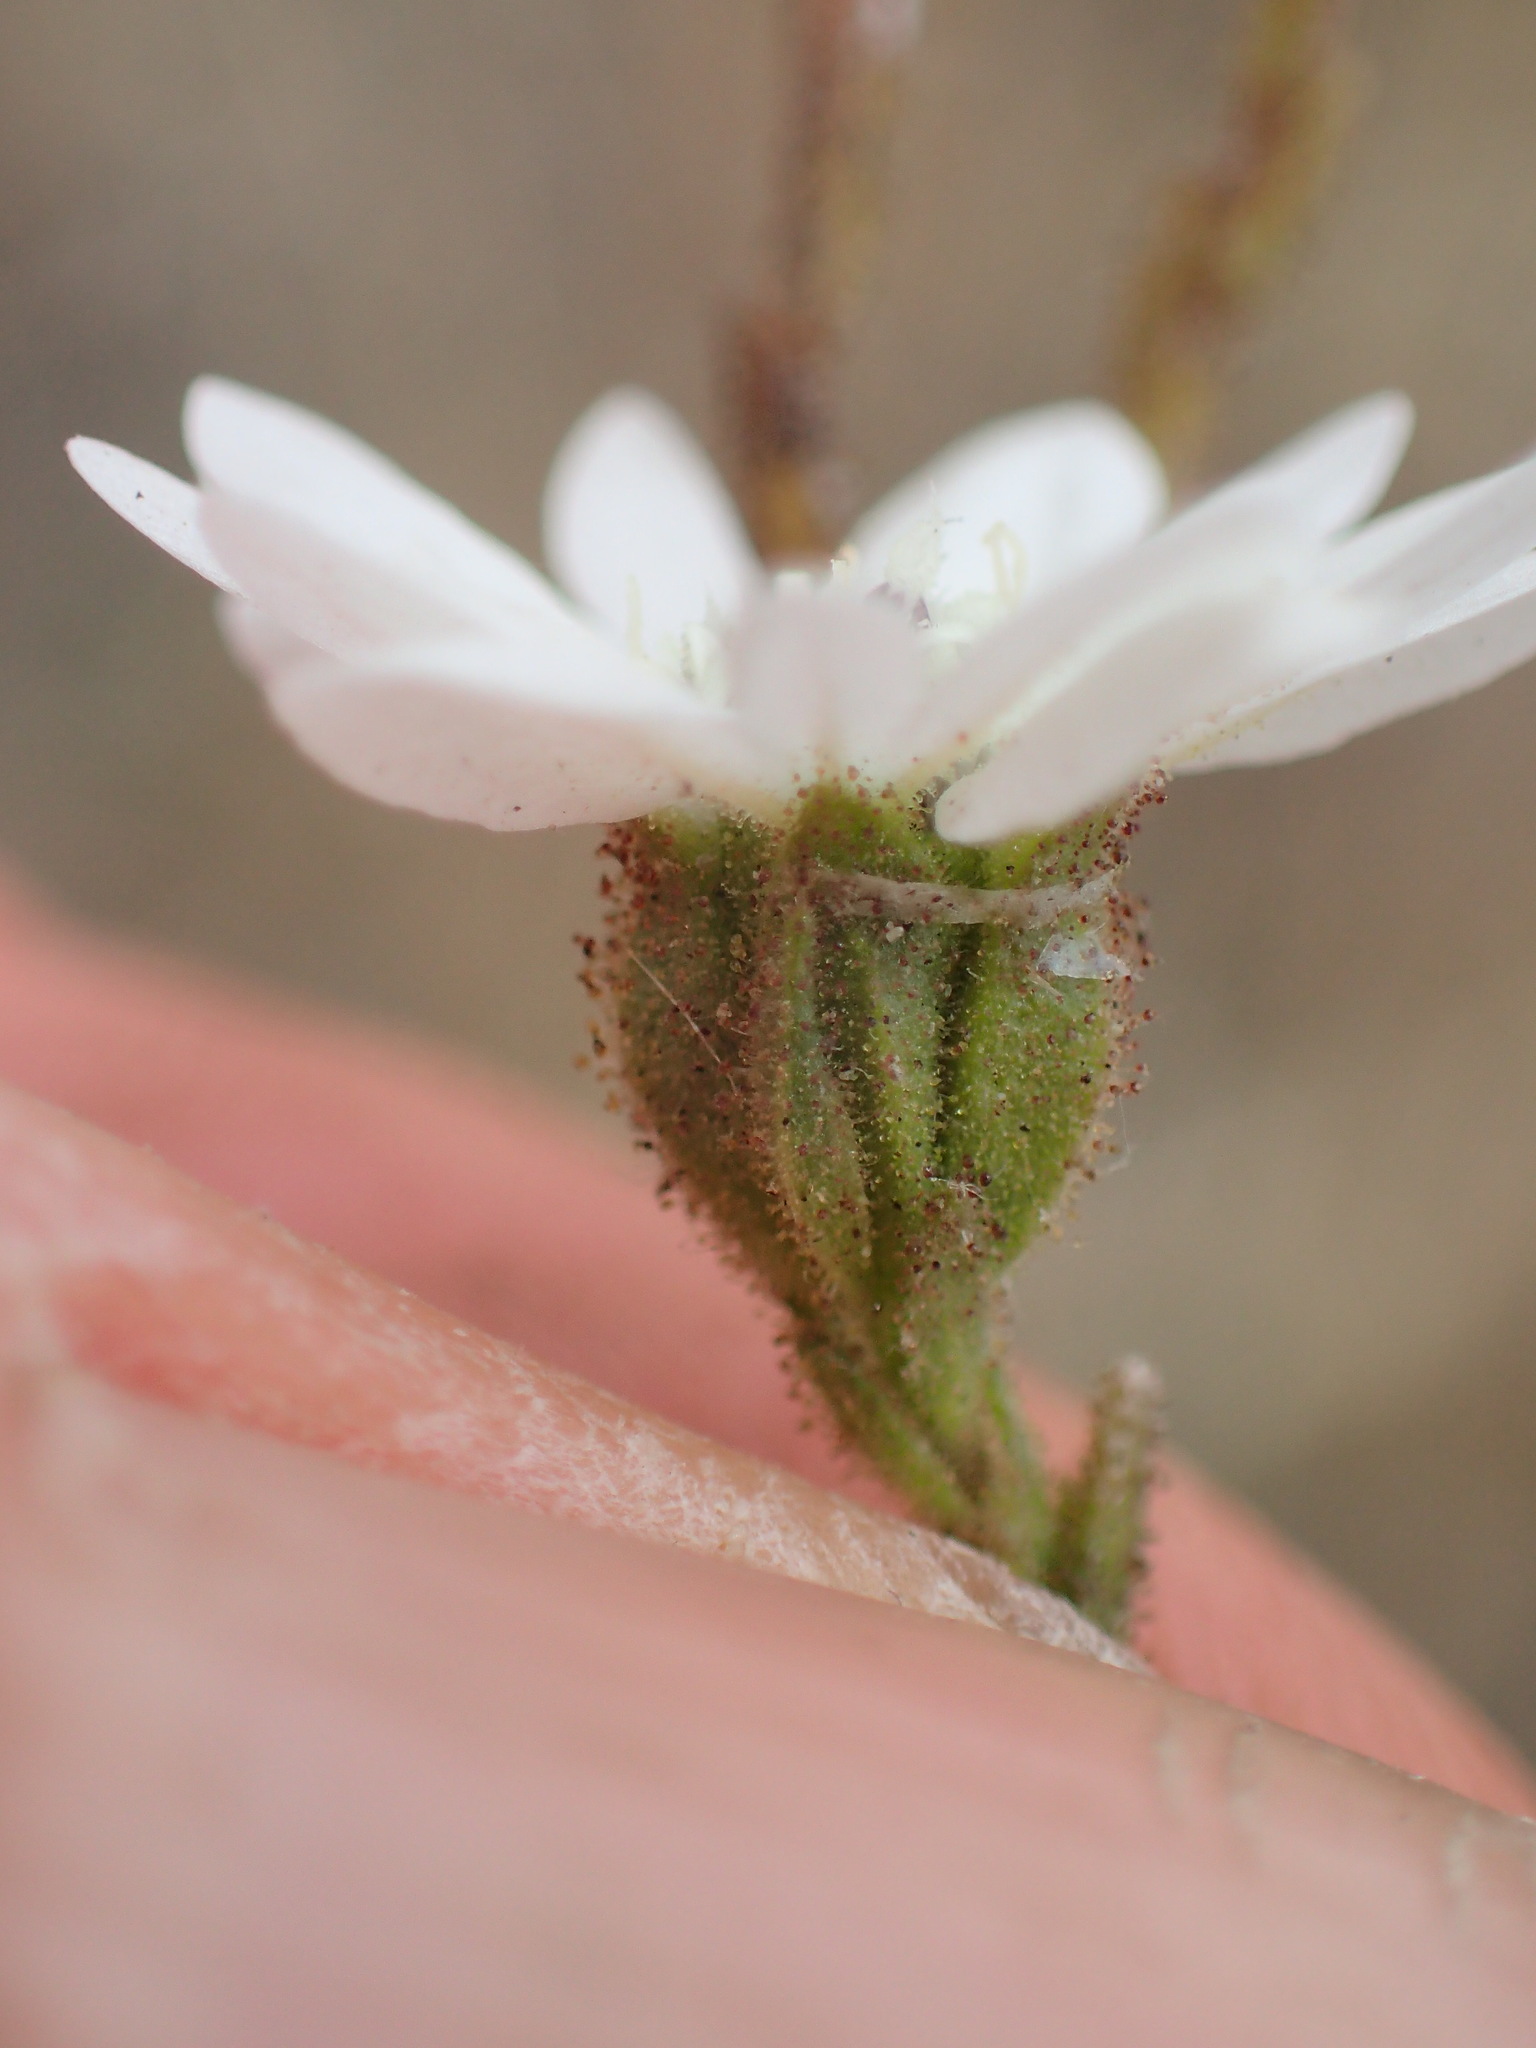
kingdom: Plantae
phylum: Tracheophyta
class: Magnoliopsida
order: Asterales
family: Asteraceae
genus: Hemizonia
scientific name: Hemizonia congesta
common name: Hayfield tarweed
